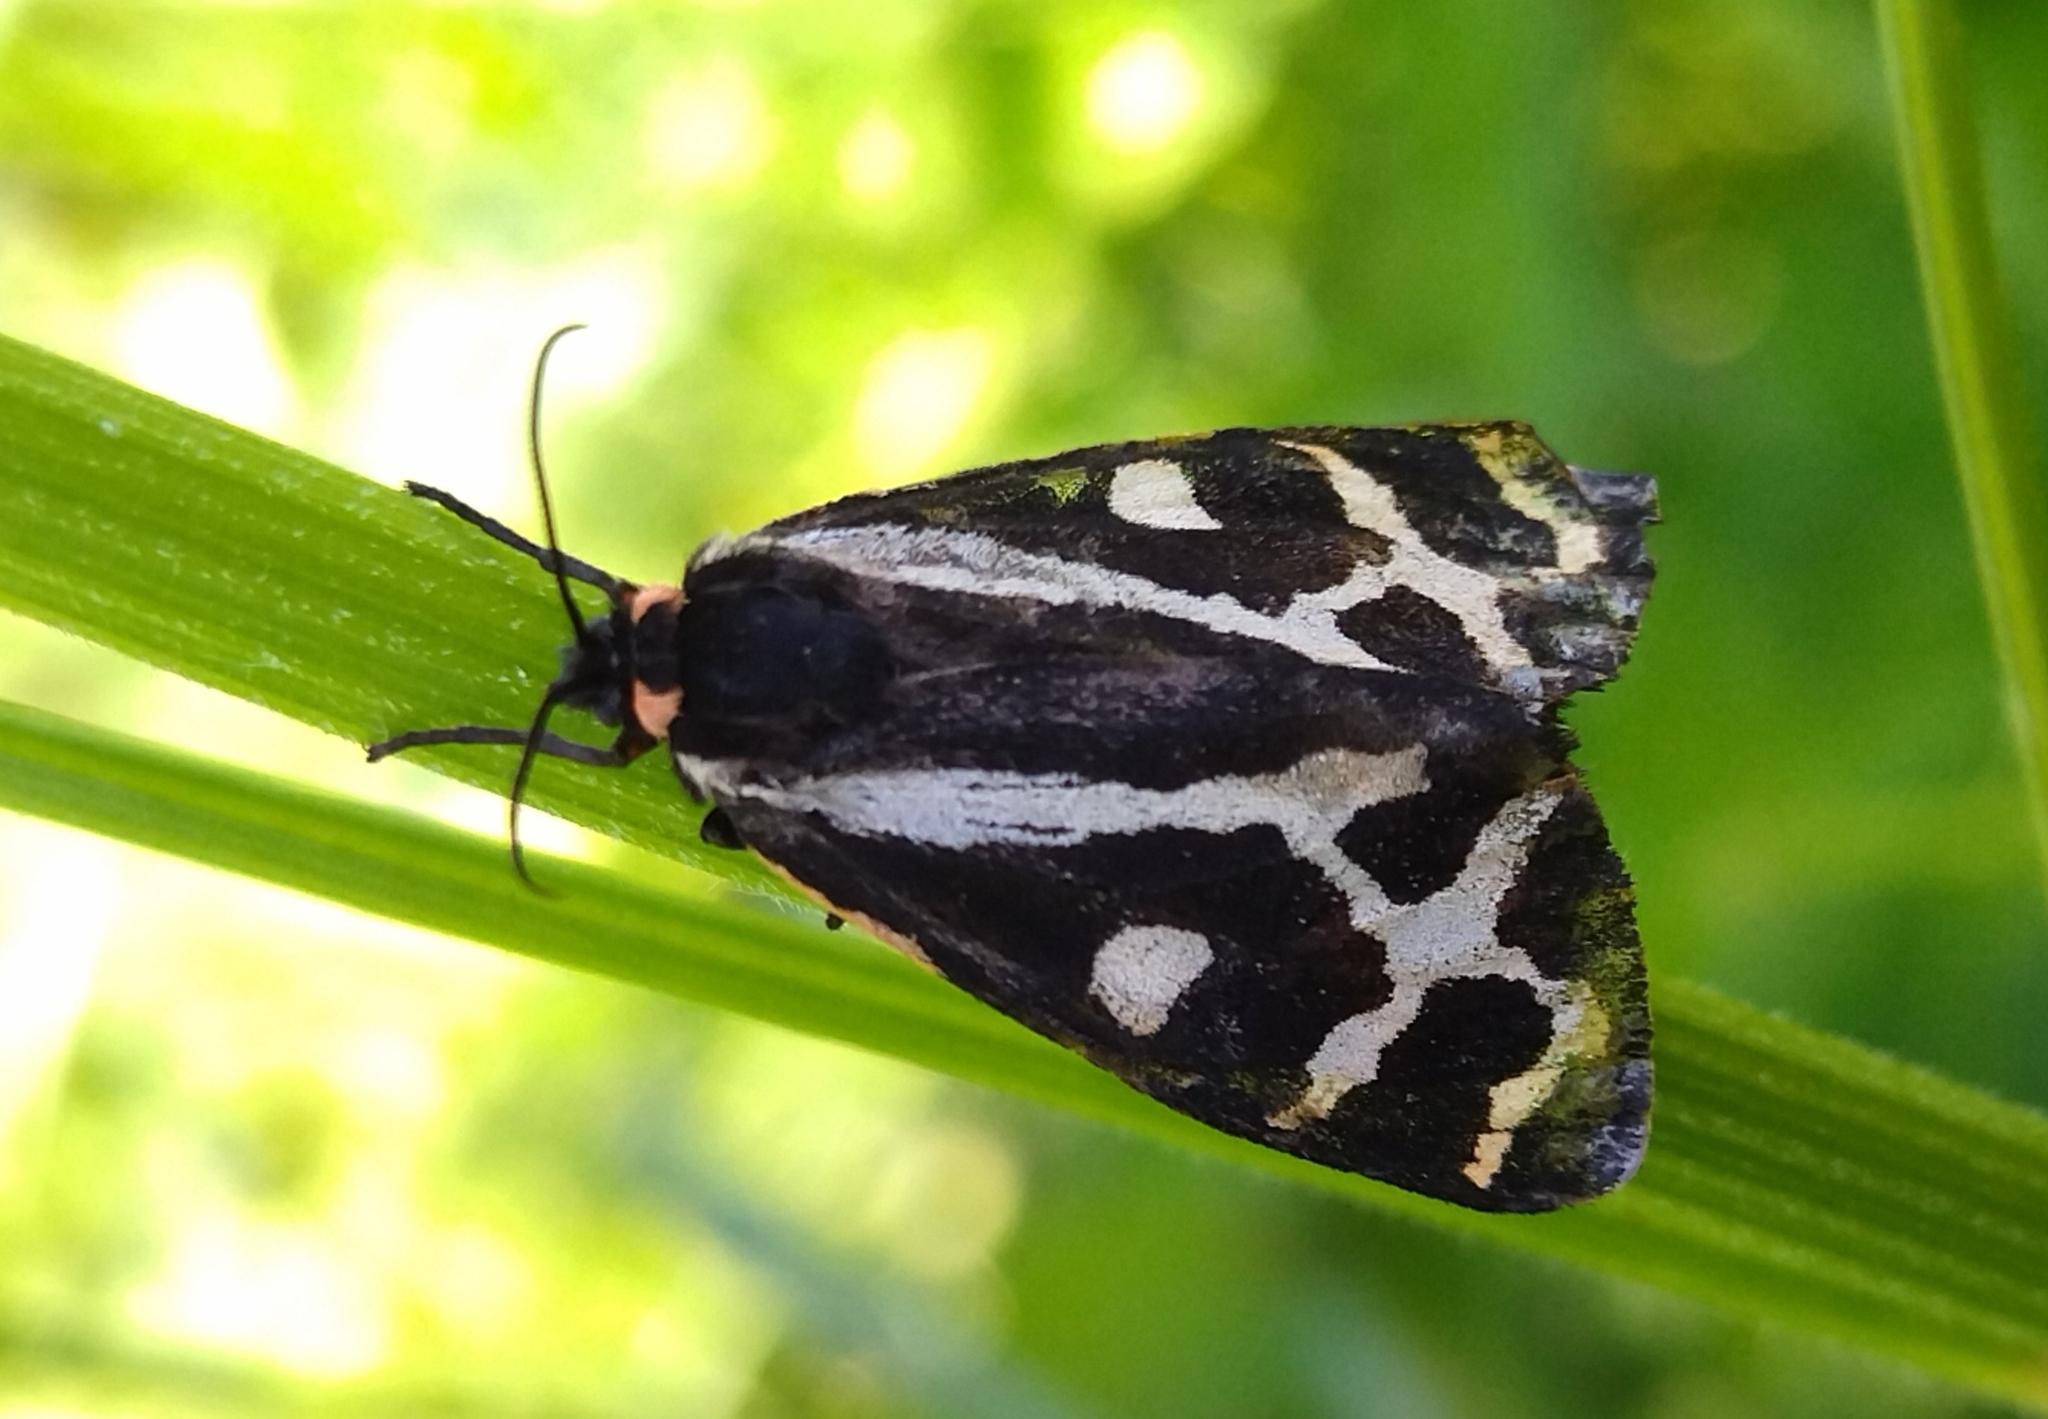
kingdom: Animalia
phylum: Arthropoda
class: Insecta
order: Lepidoptera
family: Erebidae
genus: Parasemia
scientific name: Parasemia plantaginis
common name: Wood tiger
